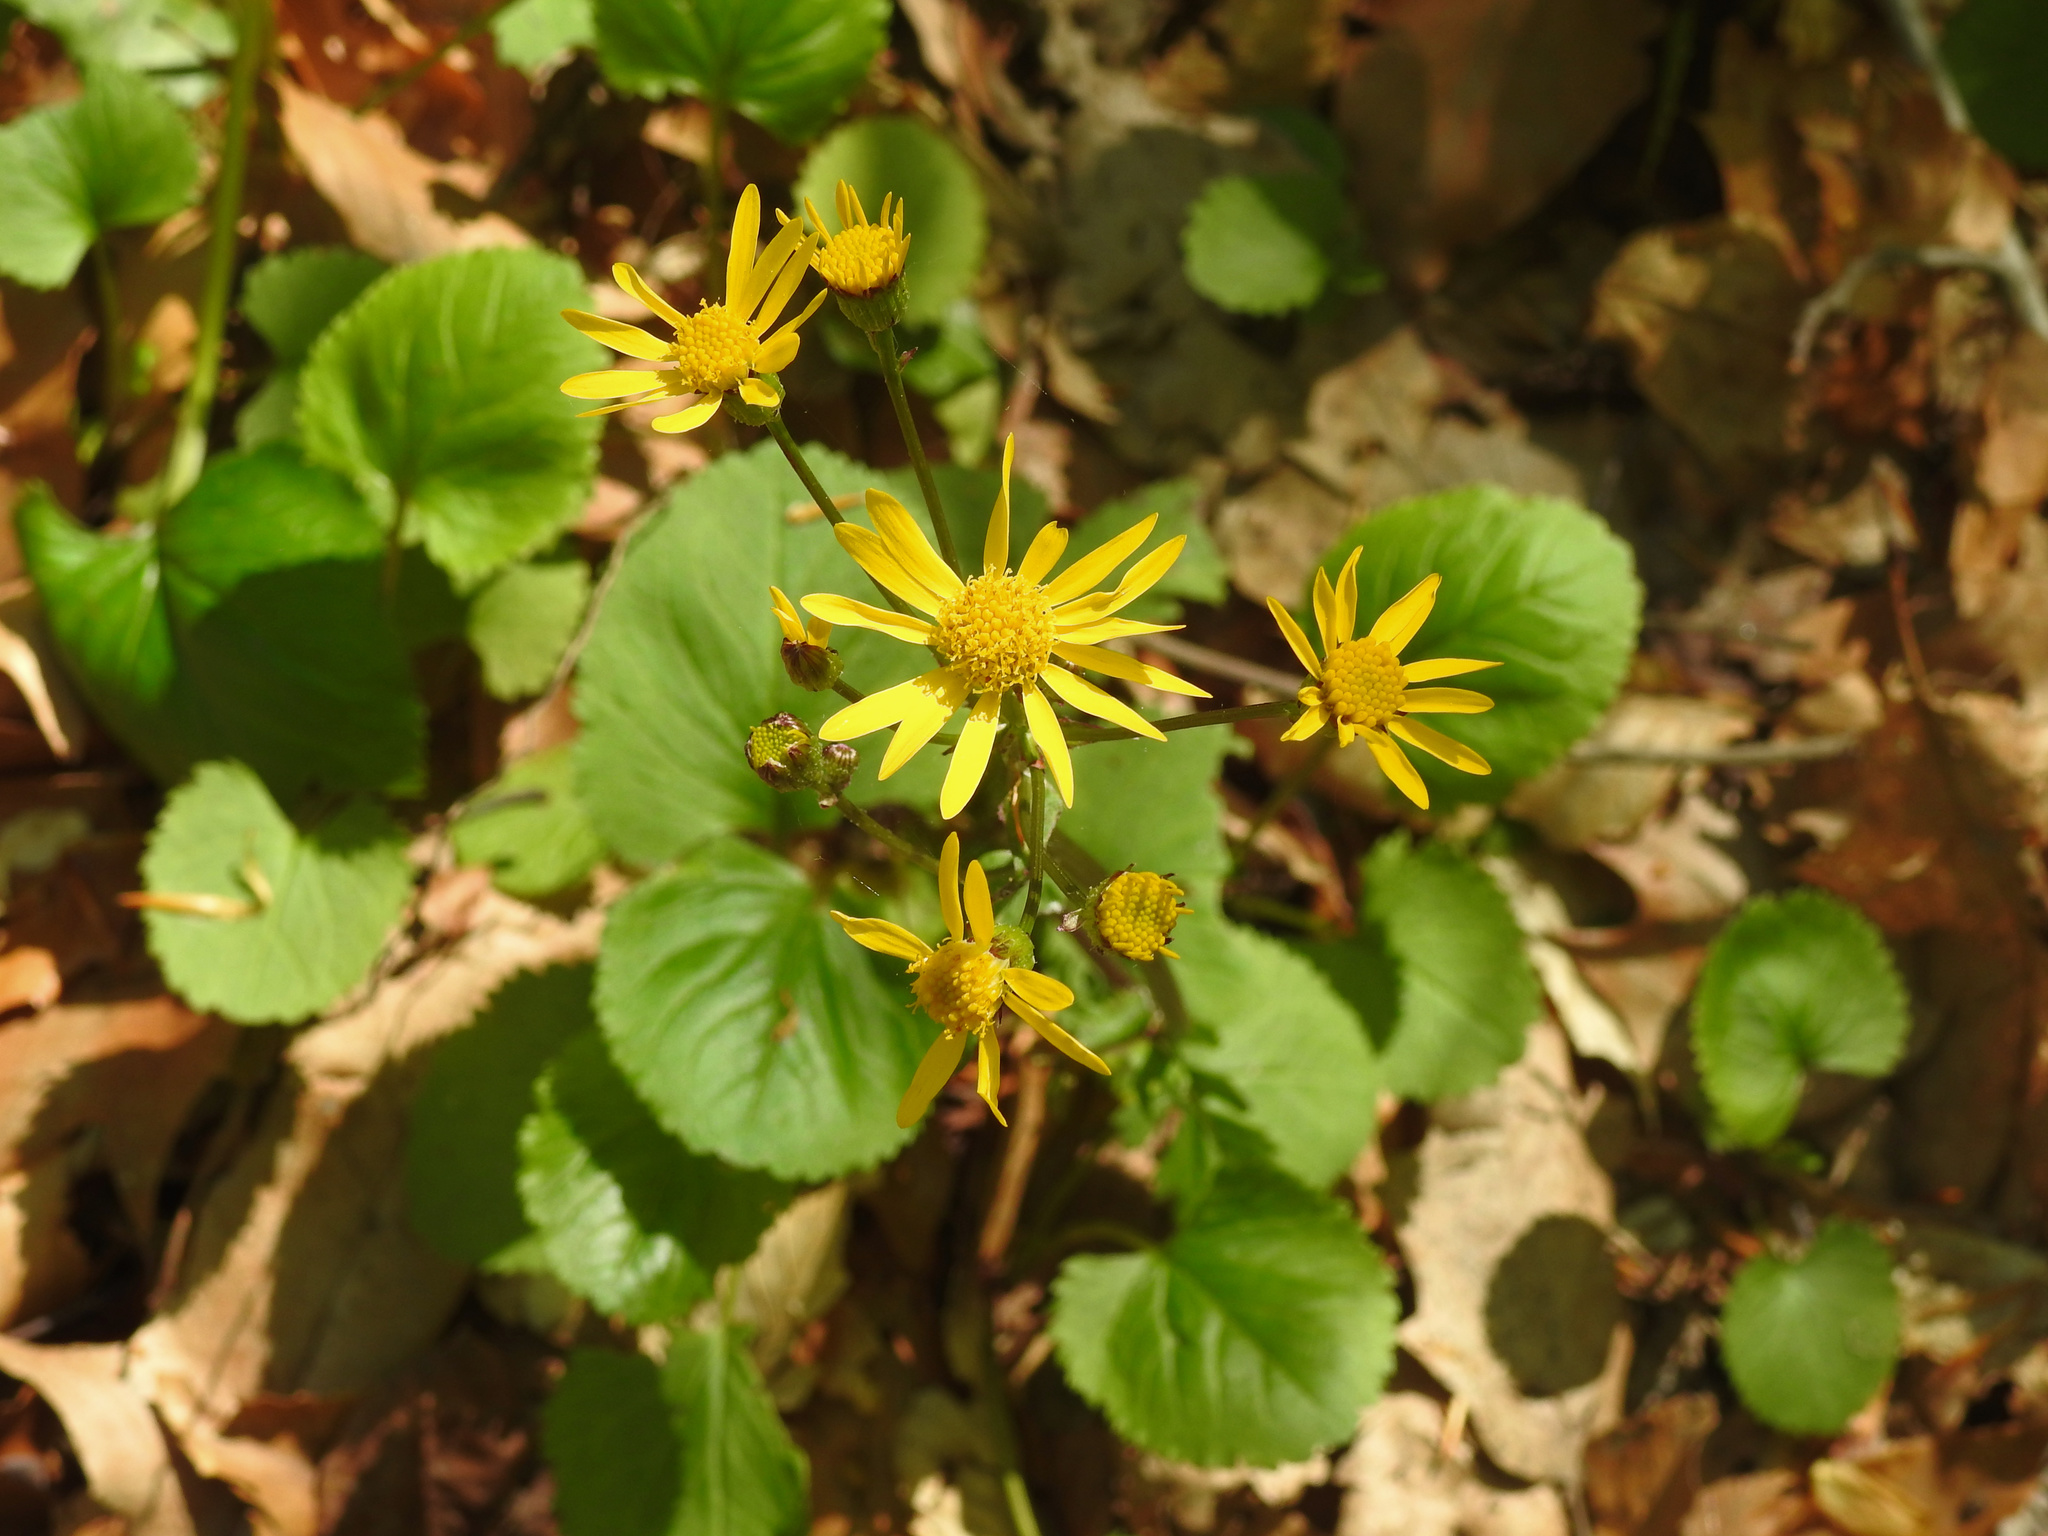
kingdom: Plantae
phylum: Tracheophyta
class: Magnoliopsida
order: Asterales
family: Asteraceae
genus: Packera
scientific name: Packera aurea
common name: Golden groundsel
